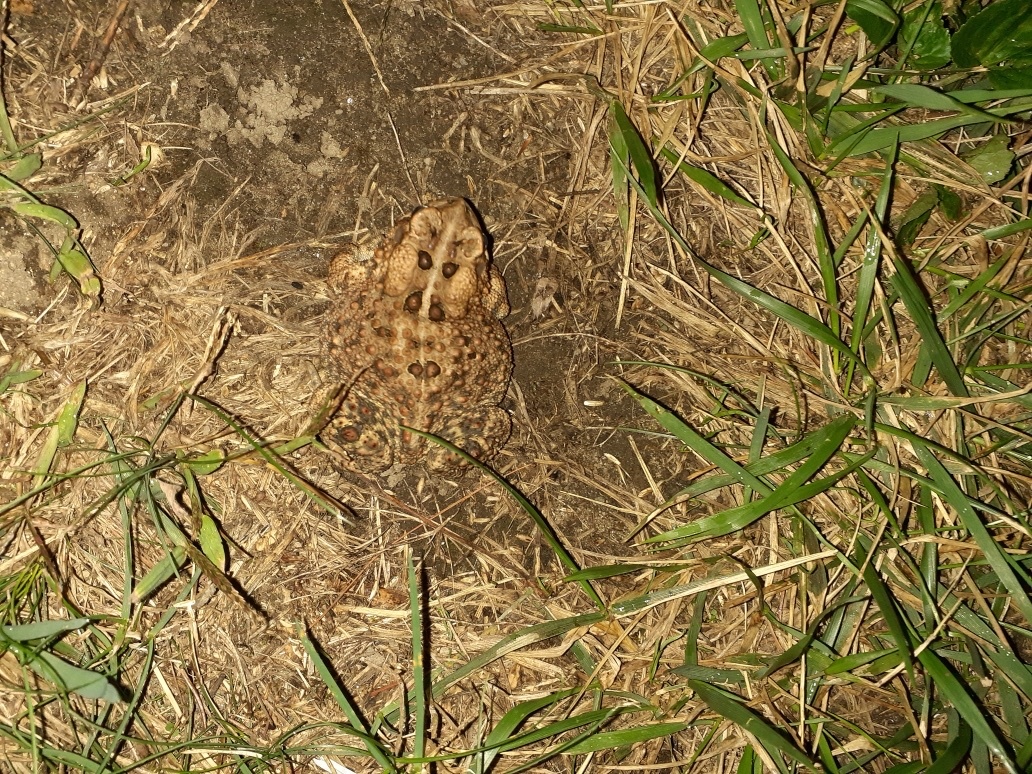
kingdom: Animalia
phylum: Chordata
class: Amphibia
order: Anura
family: Bufonidae
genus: Anaxyrus
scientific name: Anaxyrus americanus
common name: American toad
